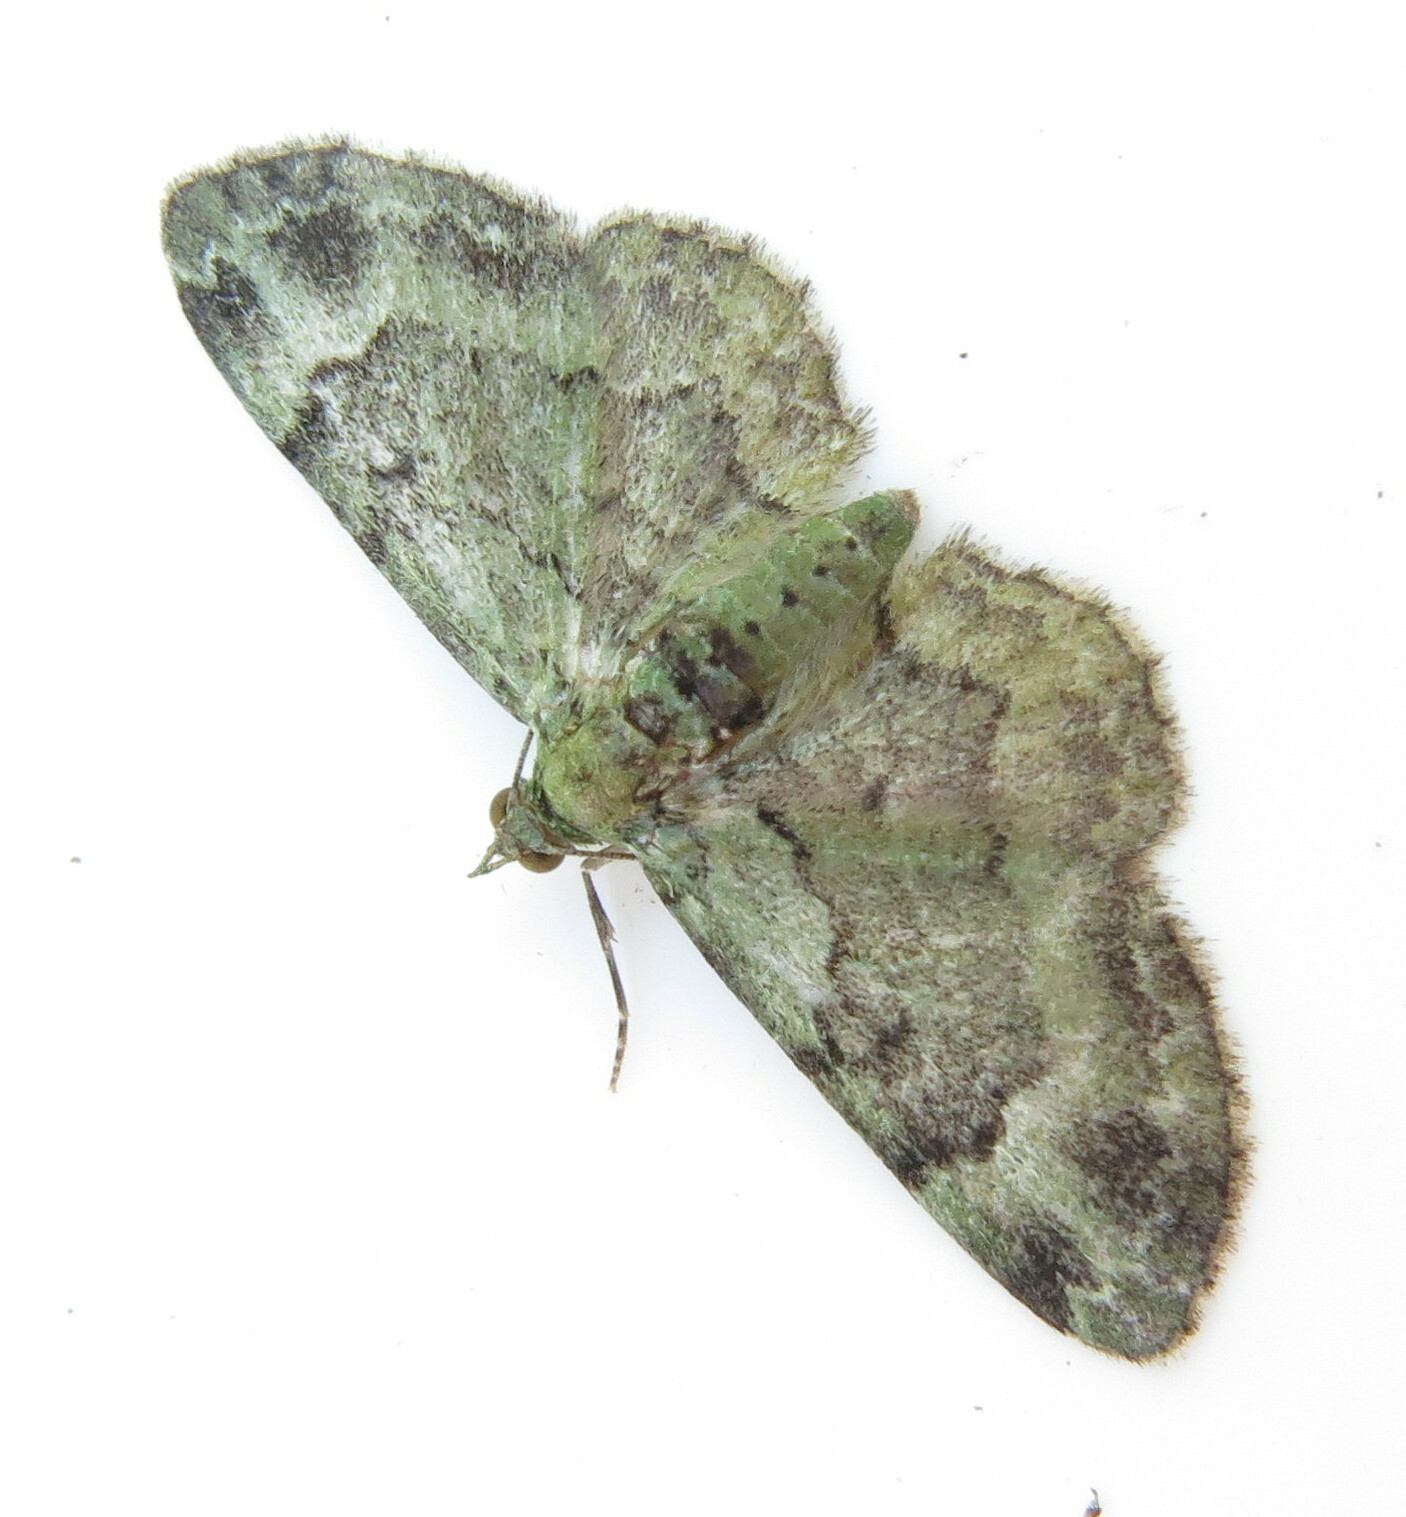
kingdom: Animalia
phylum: Arthropoda
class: Insecta
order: Lepidoptera
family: Geometridae
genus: Pasiphila
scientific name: Pasiphila rectangulata
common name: Green pug
